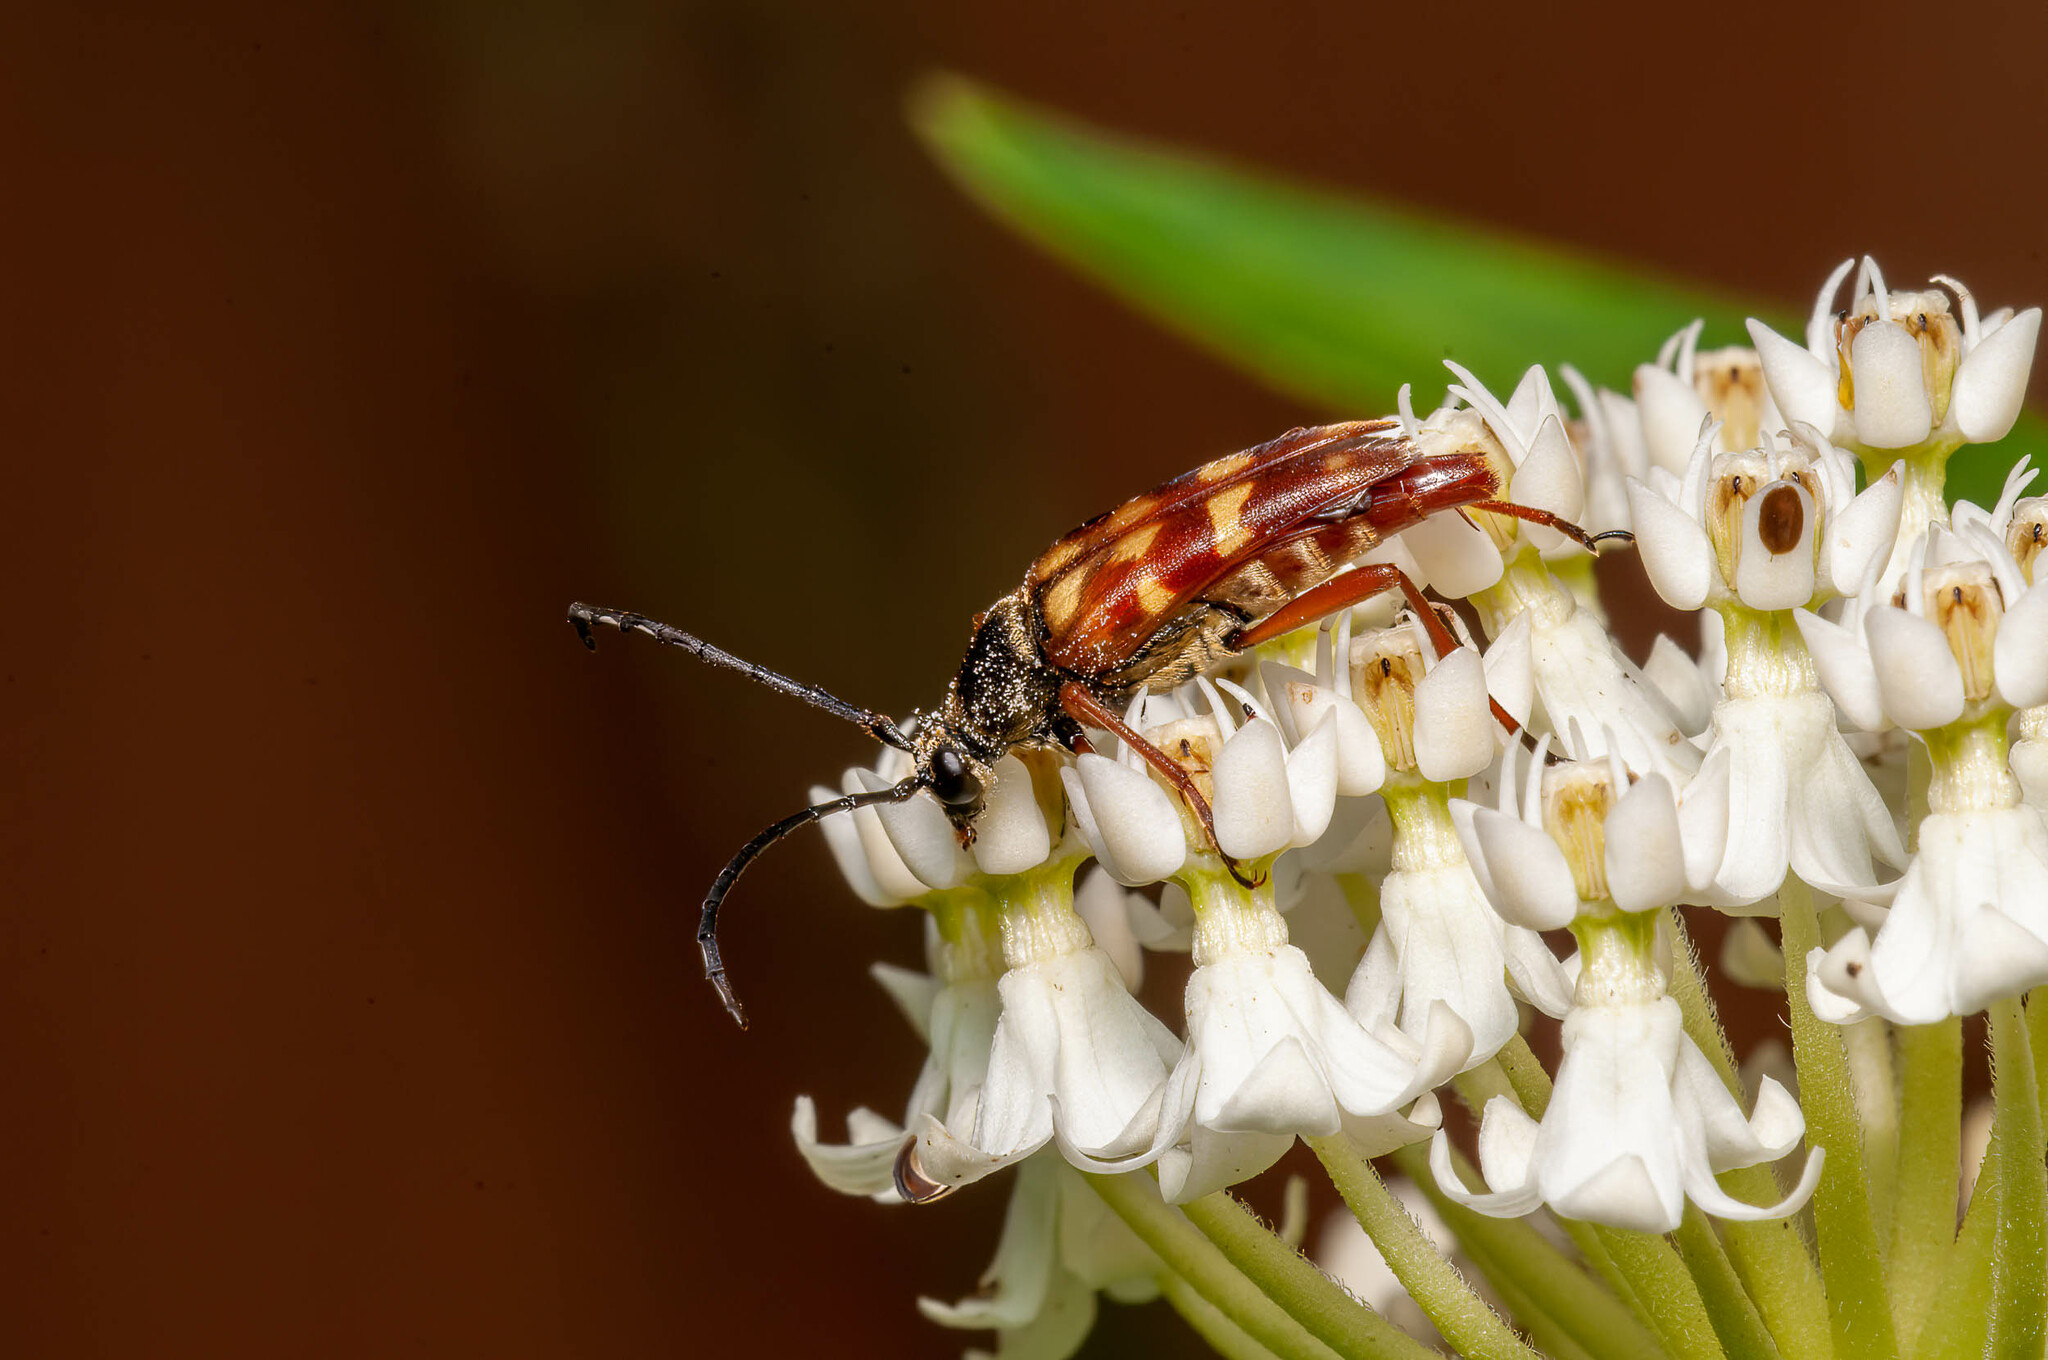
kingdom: Animalia
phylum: Arthropoda
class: Insecta
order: Coleoptera
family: Cerambycidae
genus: Typocerus
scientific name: Typocerus velutinus
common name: Banded longhorn beetle
